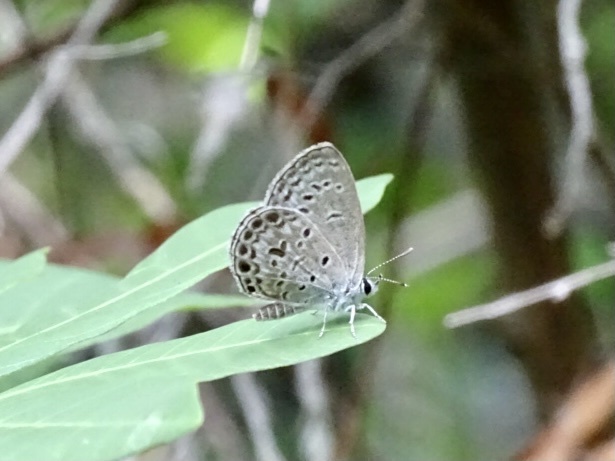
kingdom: Animalia
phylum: Arthropoda
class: Insecta
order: Lepidoptera
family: Lycaenidae
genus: Chilades
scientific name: Chilades laius
